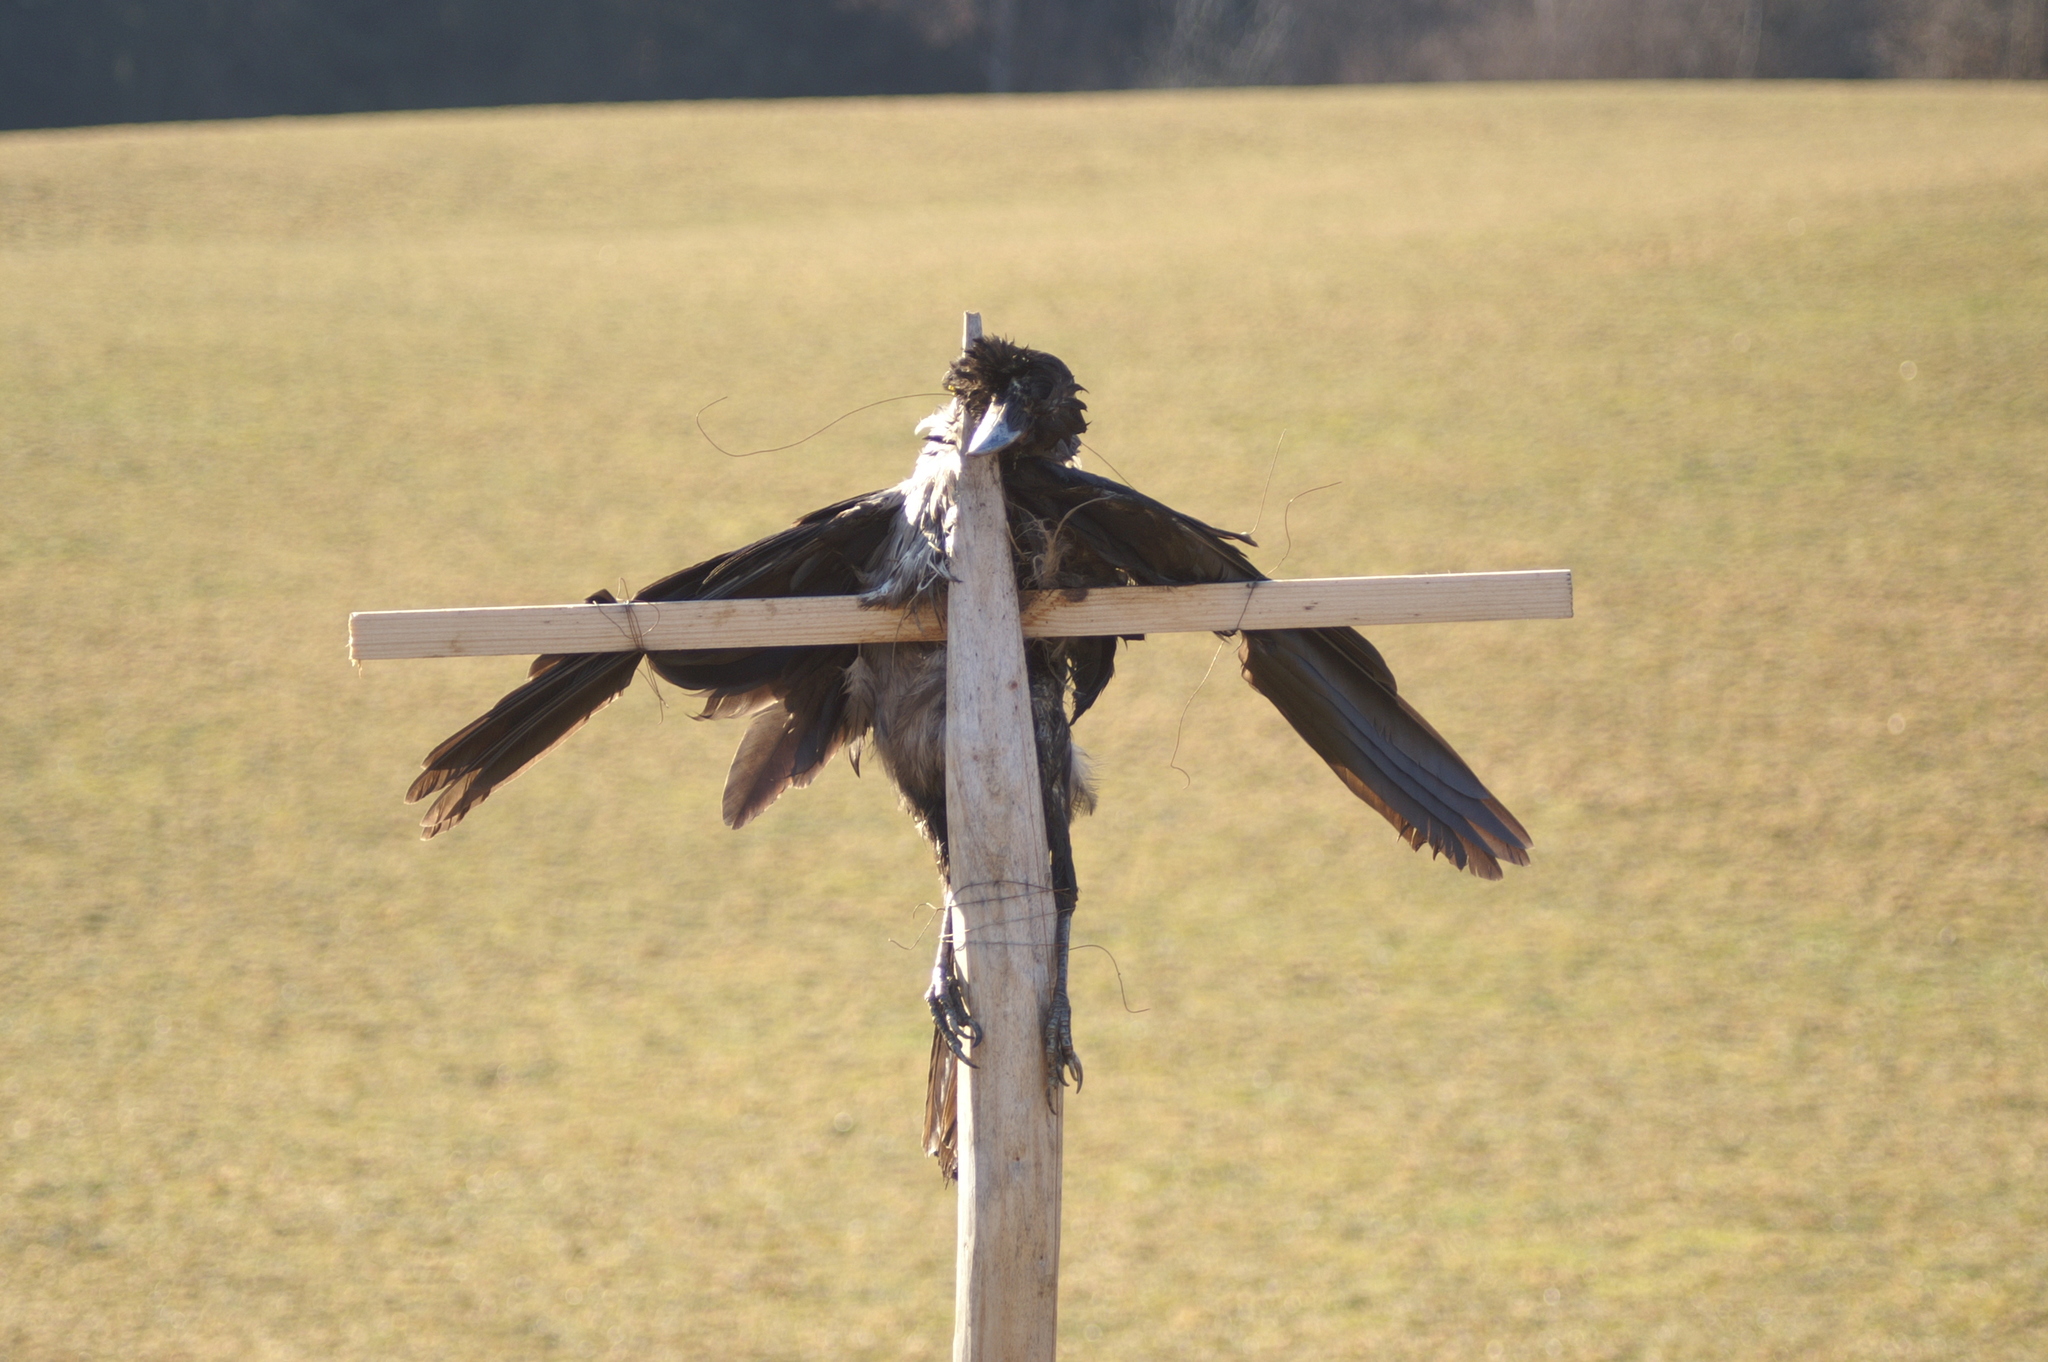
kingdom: Animalia
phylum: Chordata
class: Aves
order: Passeriformes
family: Corvidae
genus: Corvus
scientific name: Corvus cornix
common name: Hooded crow
